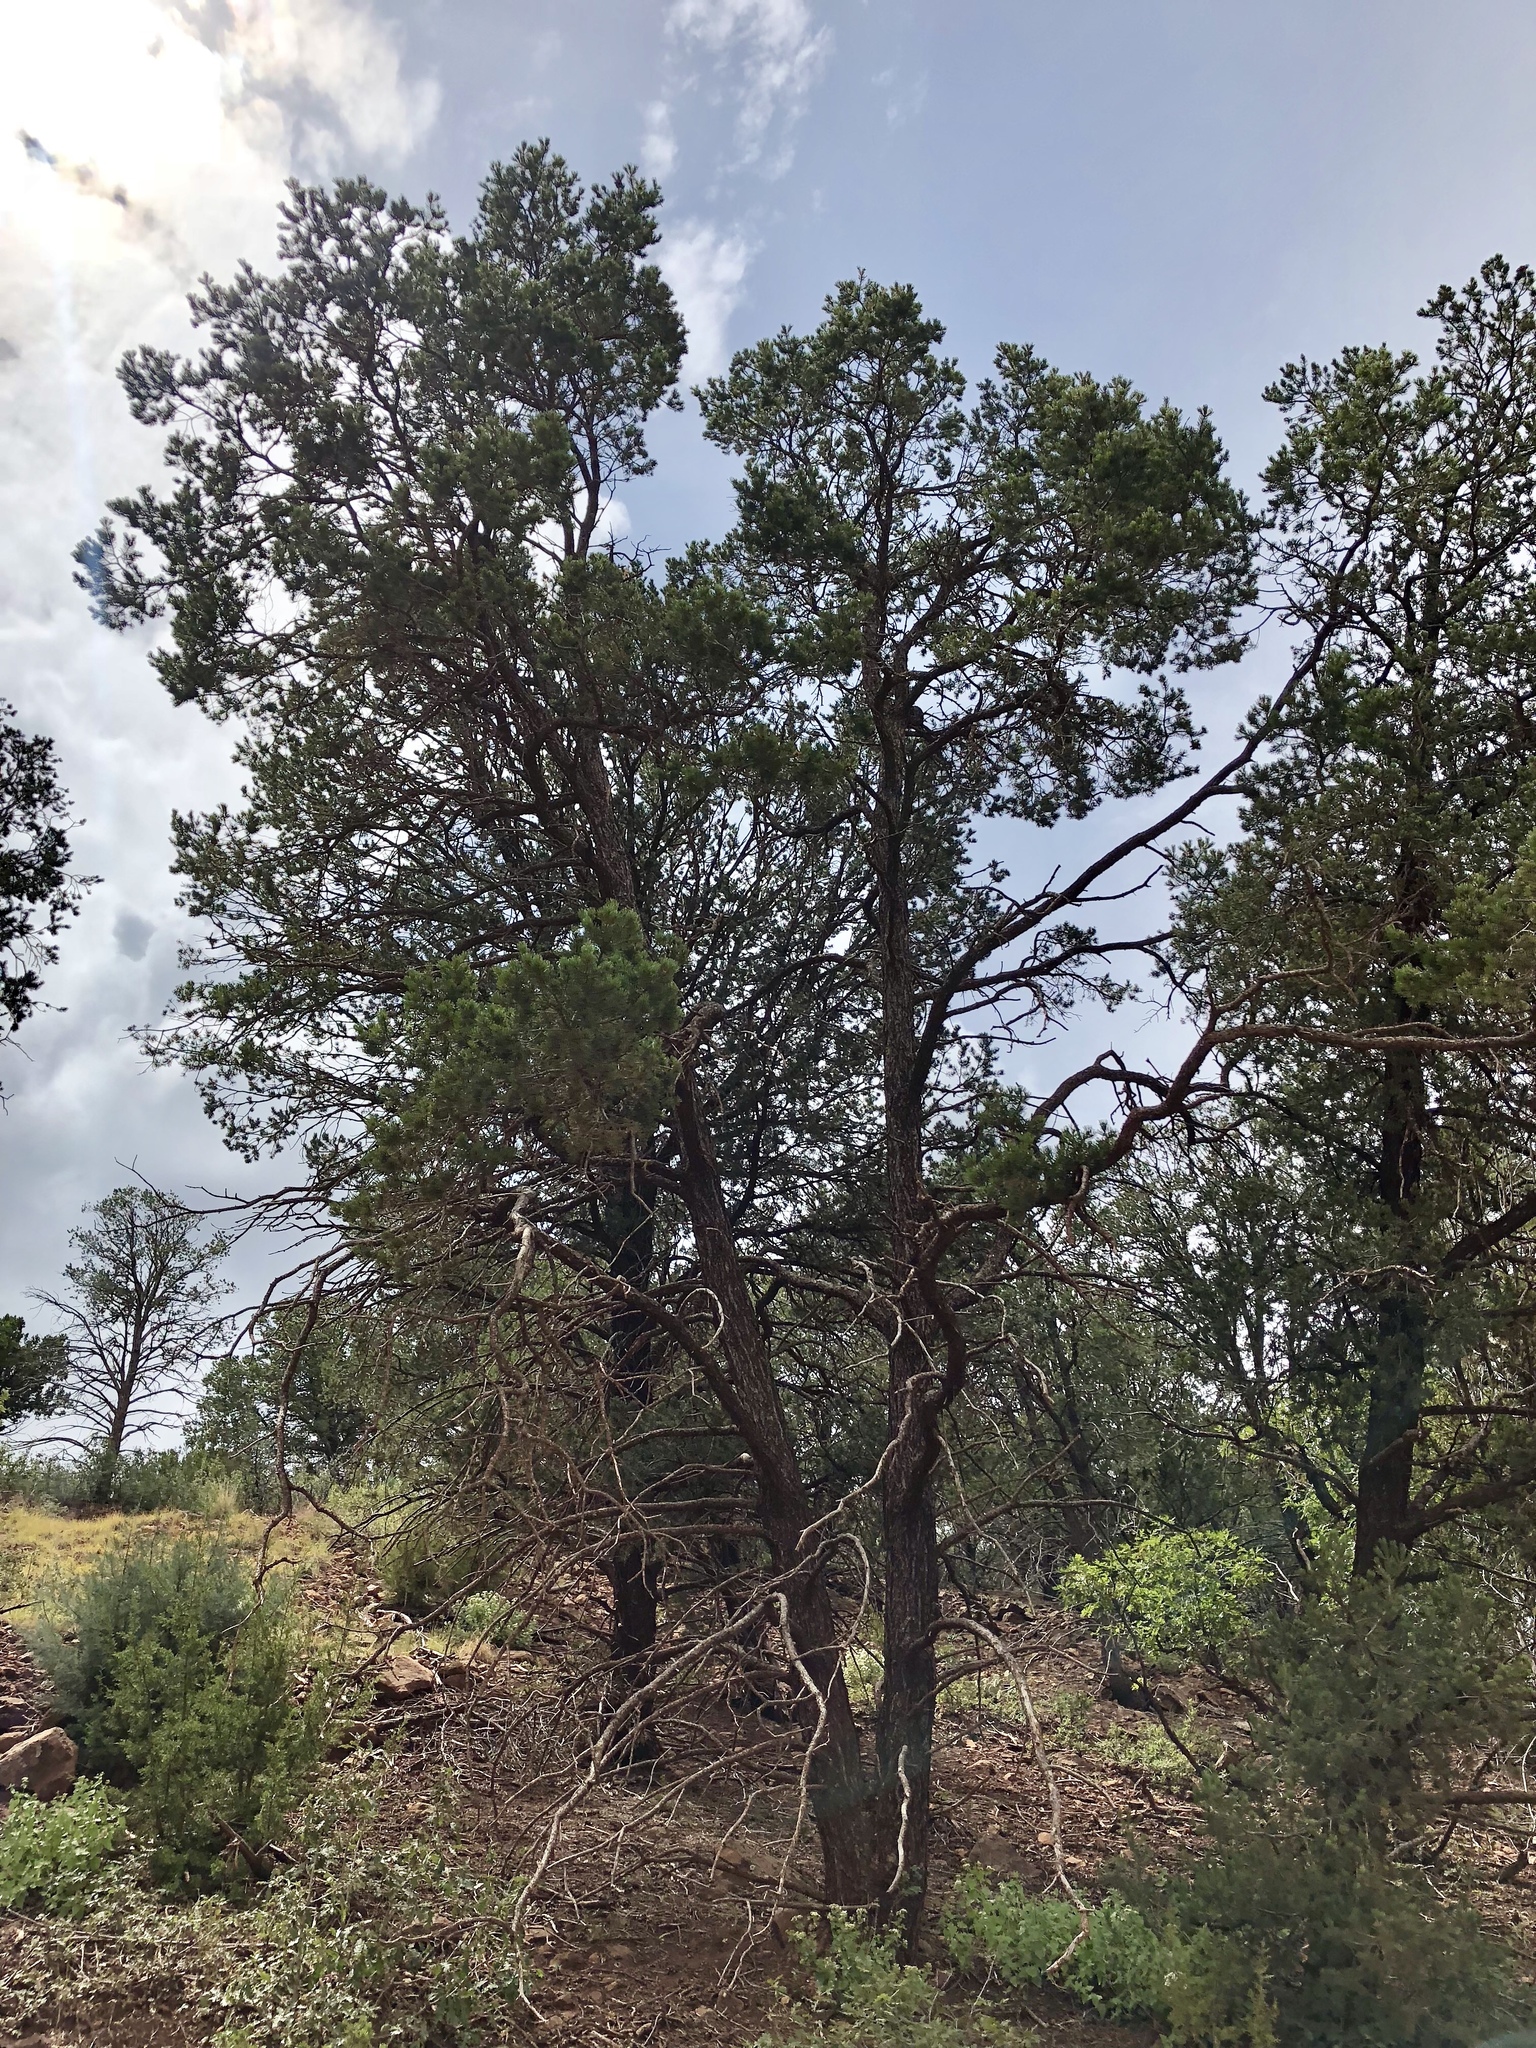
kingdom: Plantae
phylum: Tracheophyta
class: Pinopsida
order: Pinales
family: Pinaceae
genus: Pinus
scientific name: Pinus edulis
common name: Colorado pinyon
